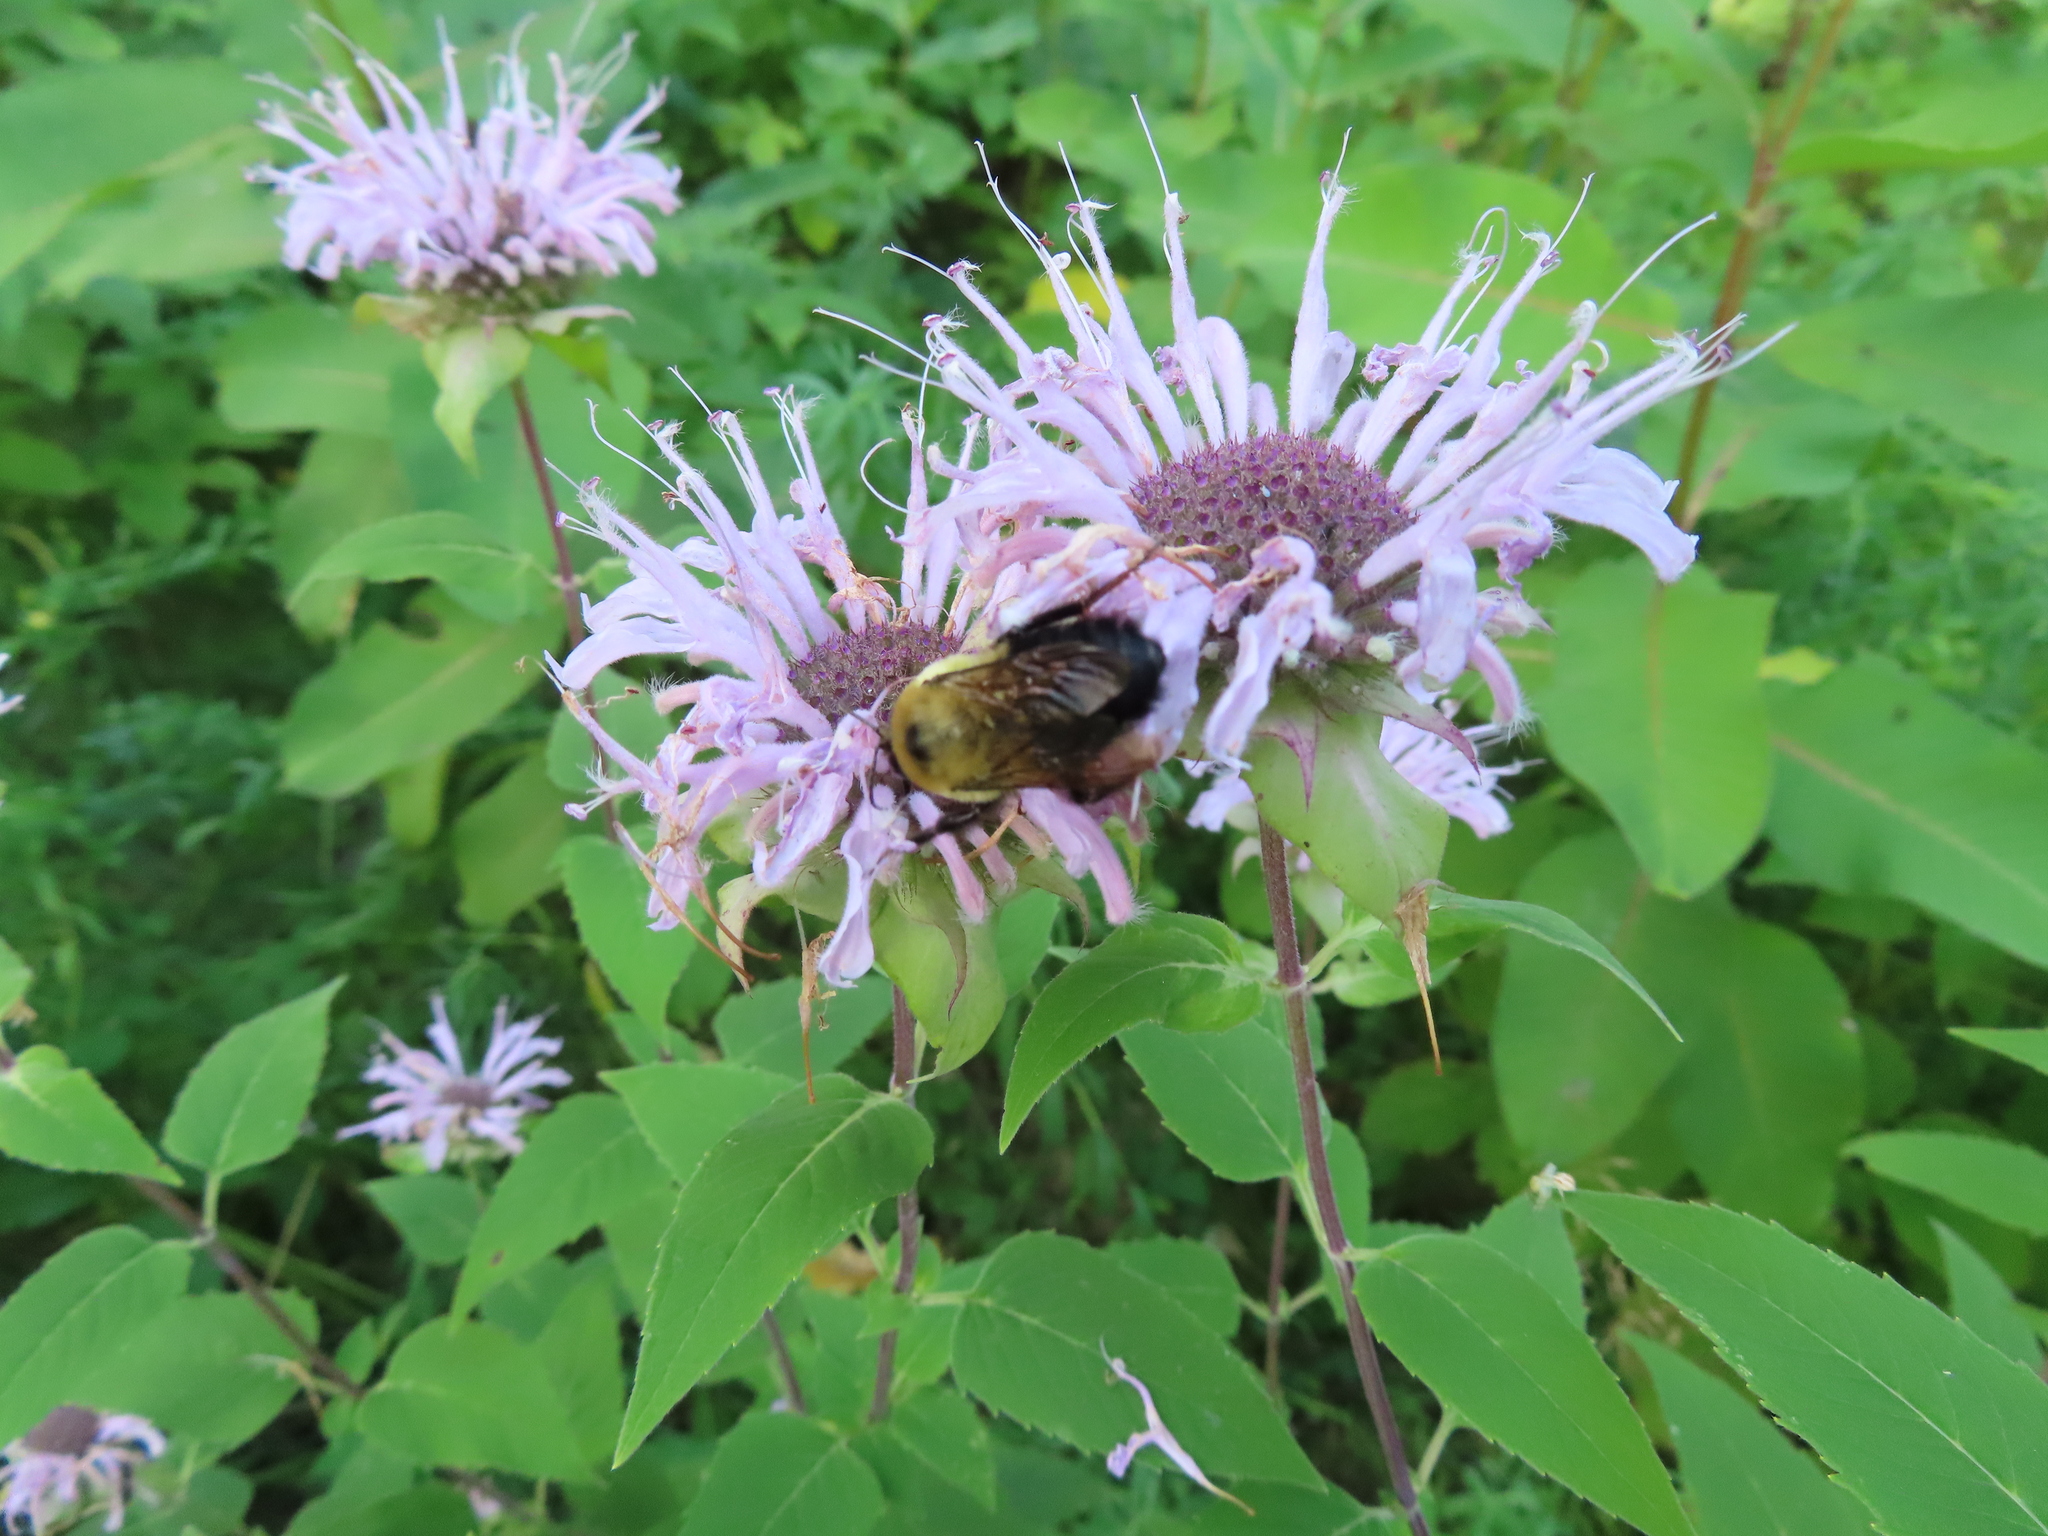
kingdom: Plantae
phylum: Tracheophyta
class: Magnoliopsida
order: Lamiales
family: Lamiaceae
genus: Monarda
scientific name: Monarda fistulosa
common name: Purple beebalm
